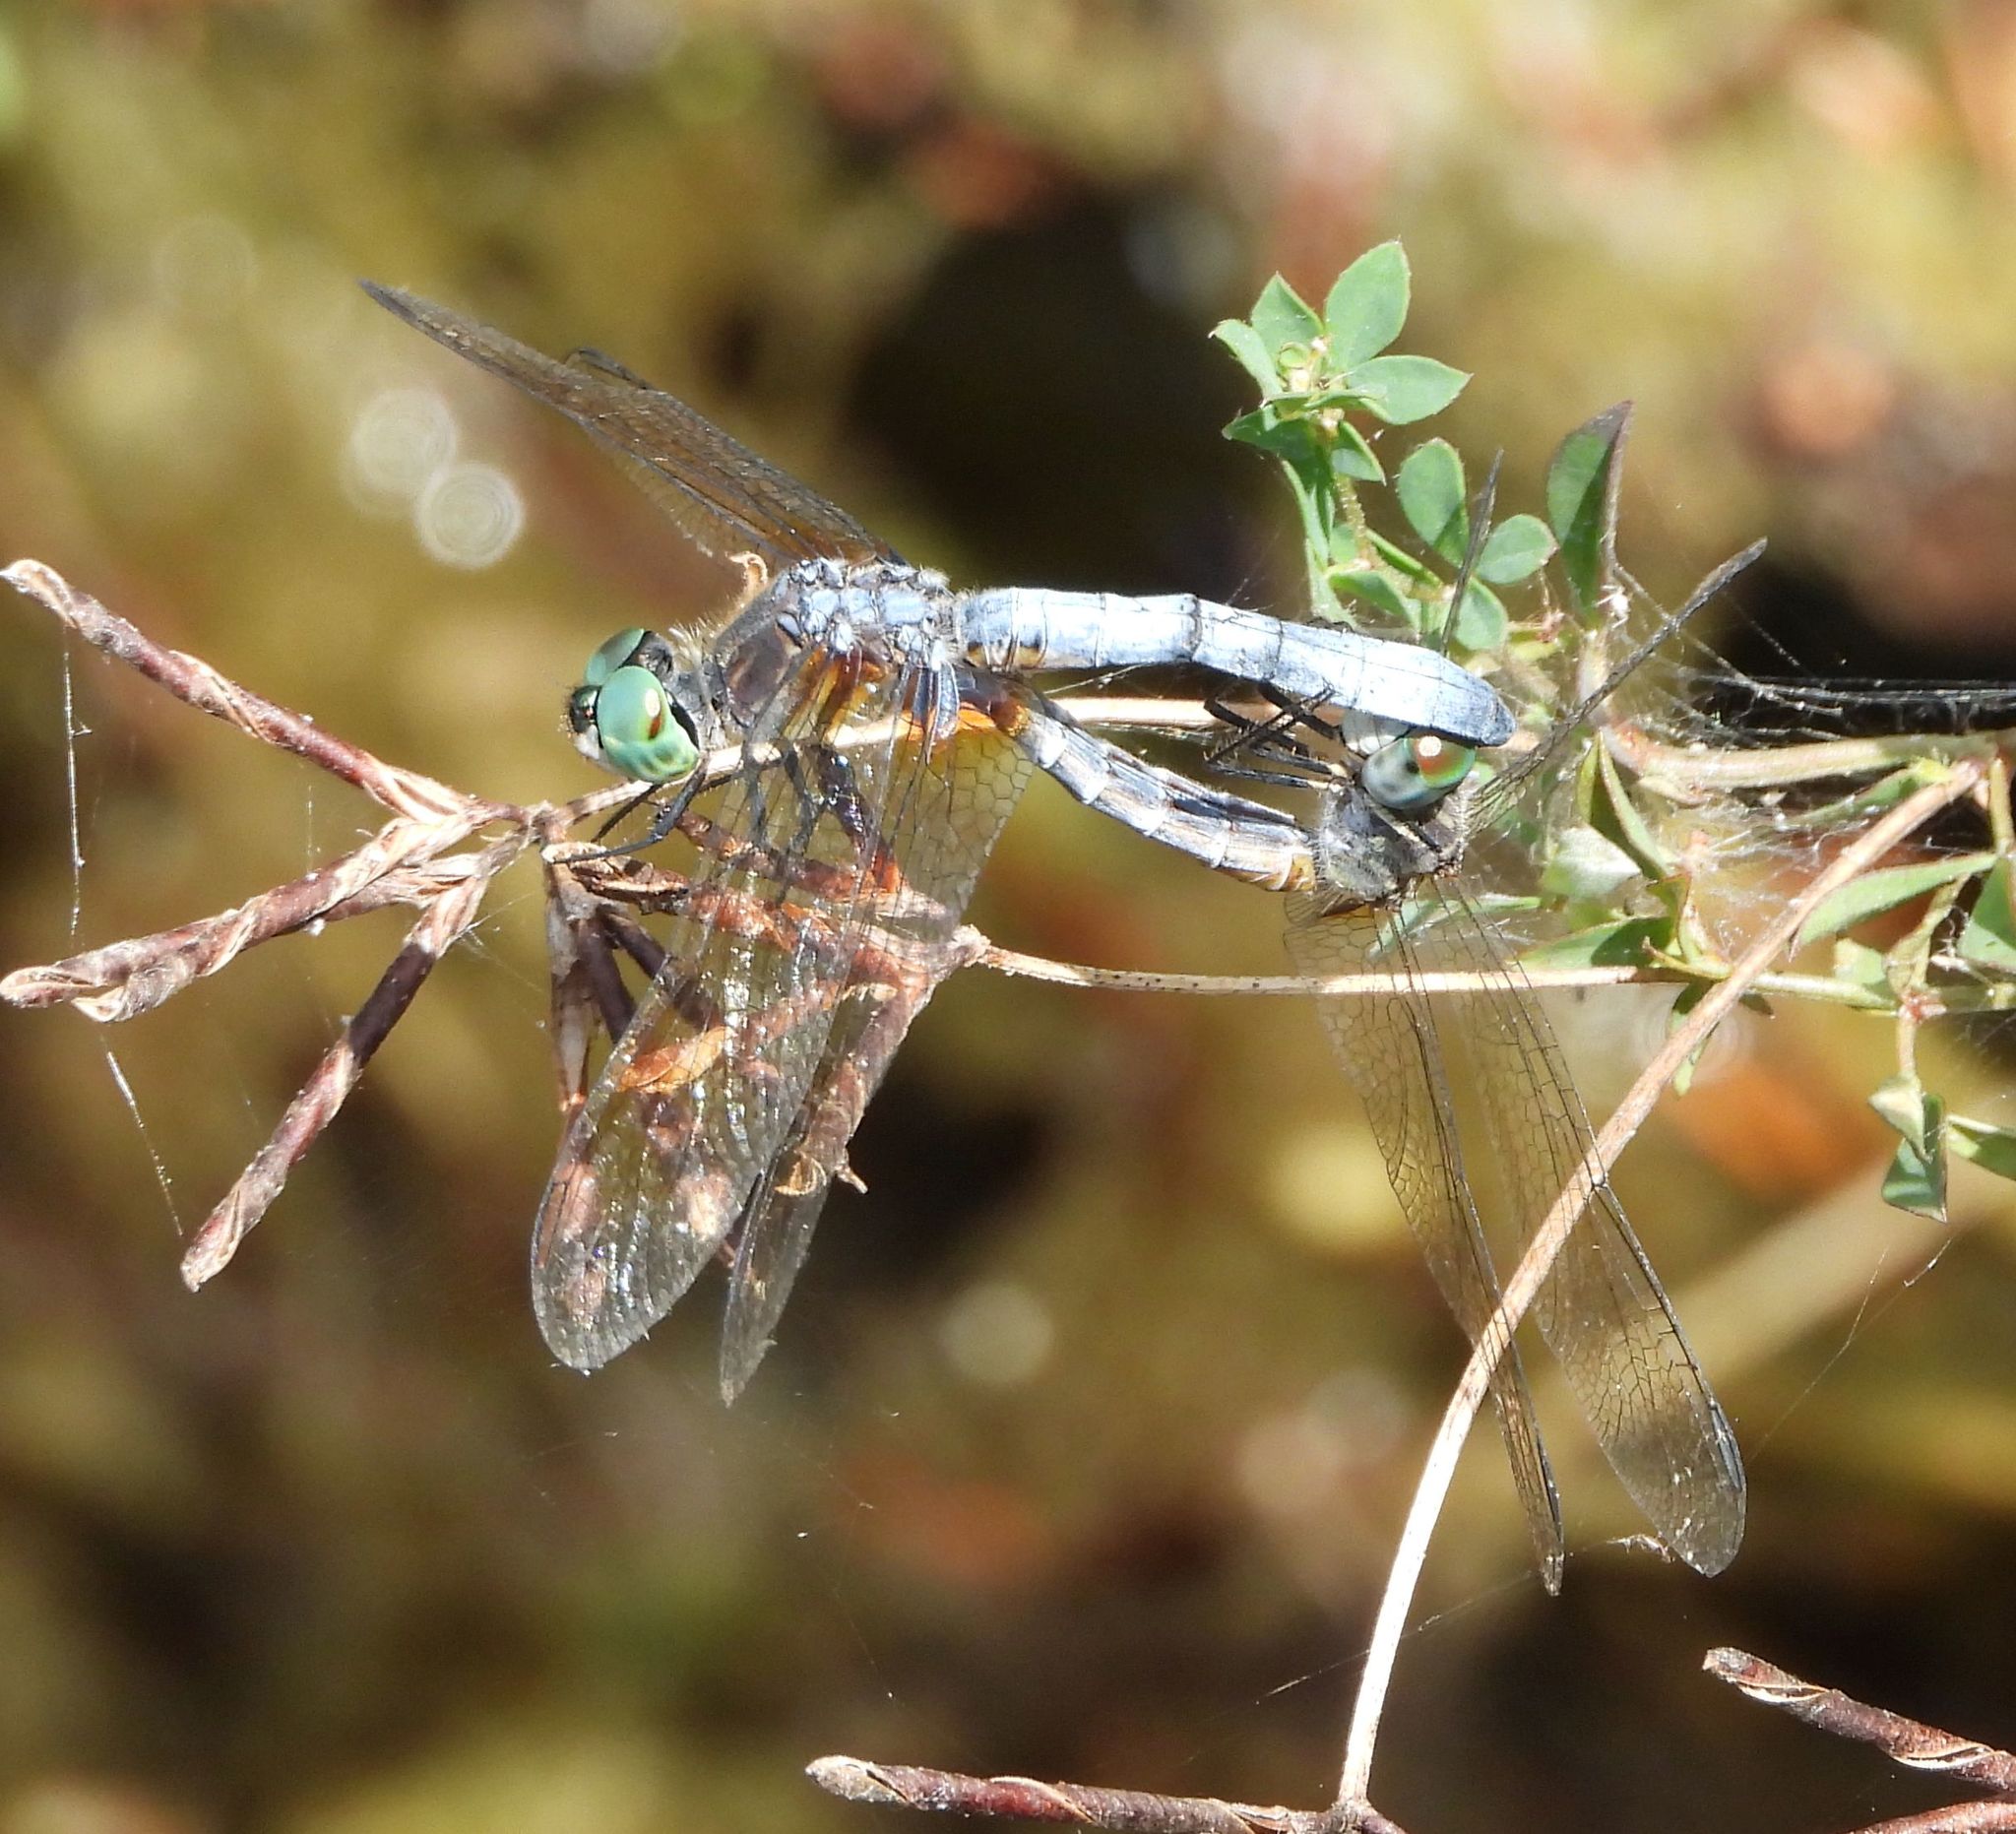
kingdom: Animalia
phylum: Arthropoda
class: Insecta
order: Odonata
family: Libellulidae
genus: Pachydiplax
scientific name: Pachydiplax longipennis
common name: Blue dasher
